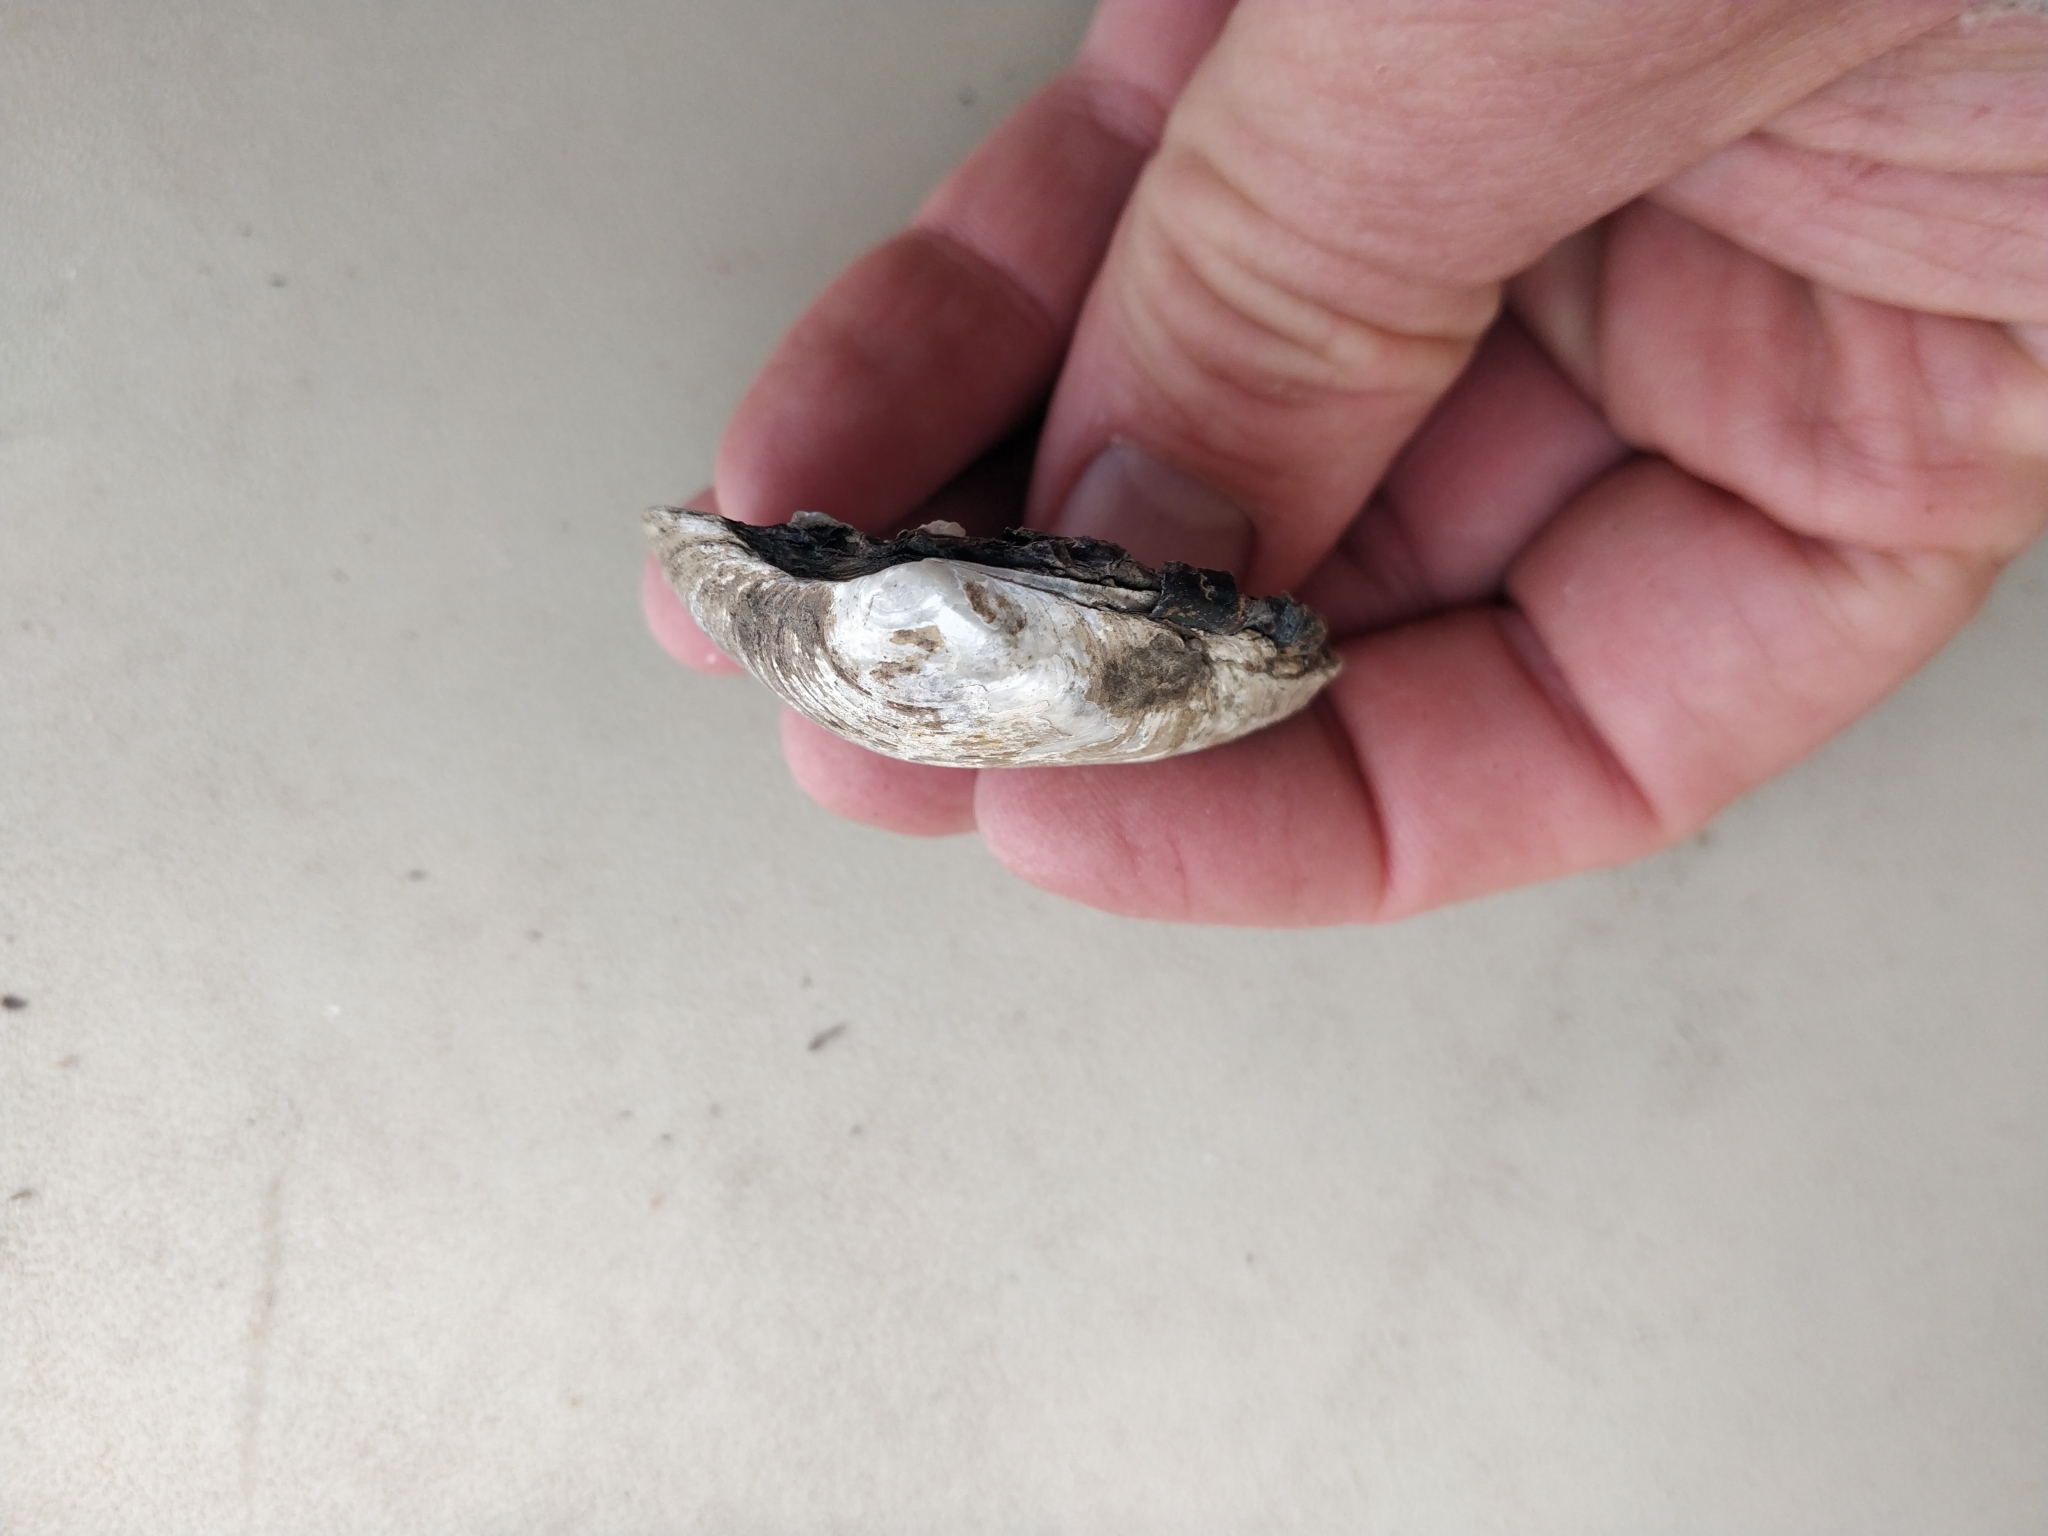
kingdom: Animalia
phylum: Mollusca
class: Bivalvia
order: Unionida
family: Unionidae
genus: Fusconaia
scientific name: Fusconaia flava
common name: Wabash pigtoe
